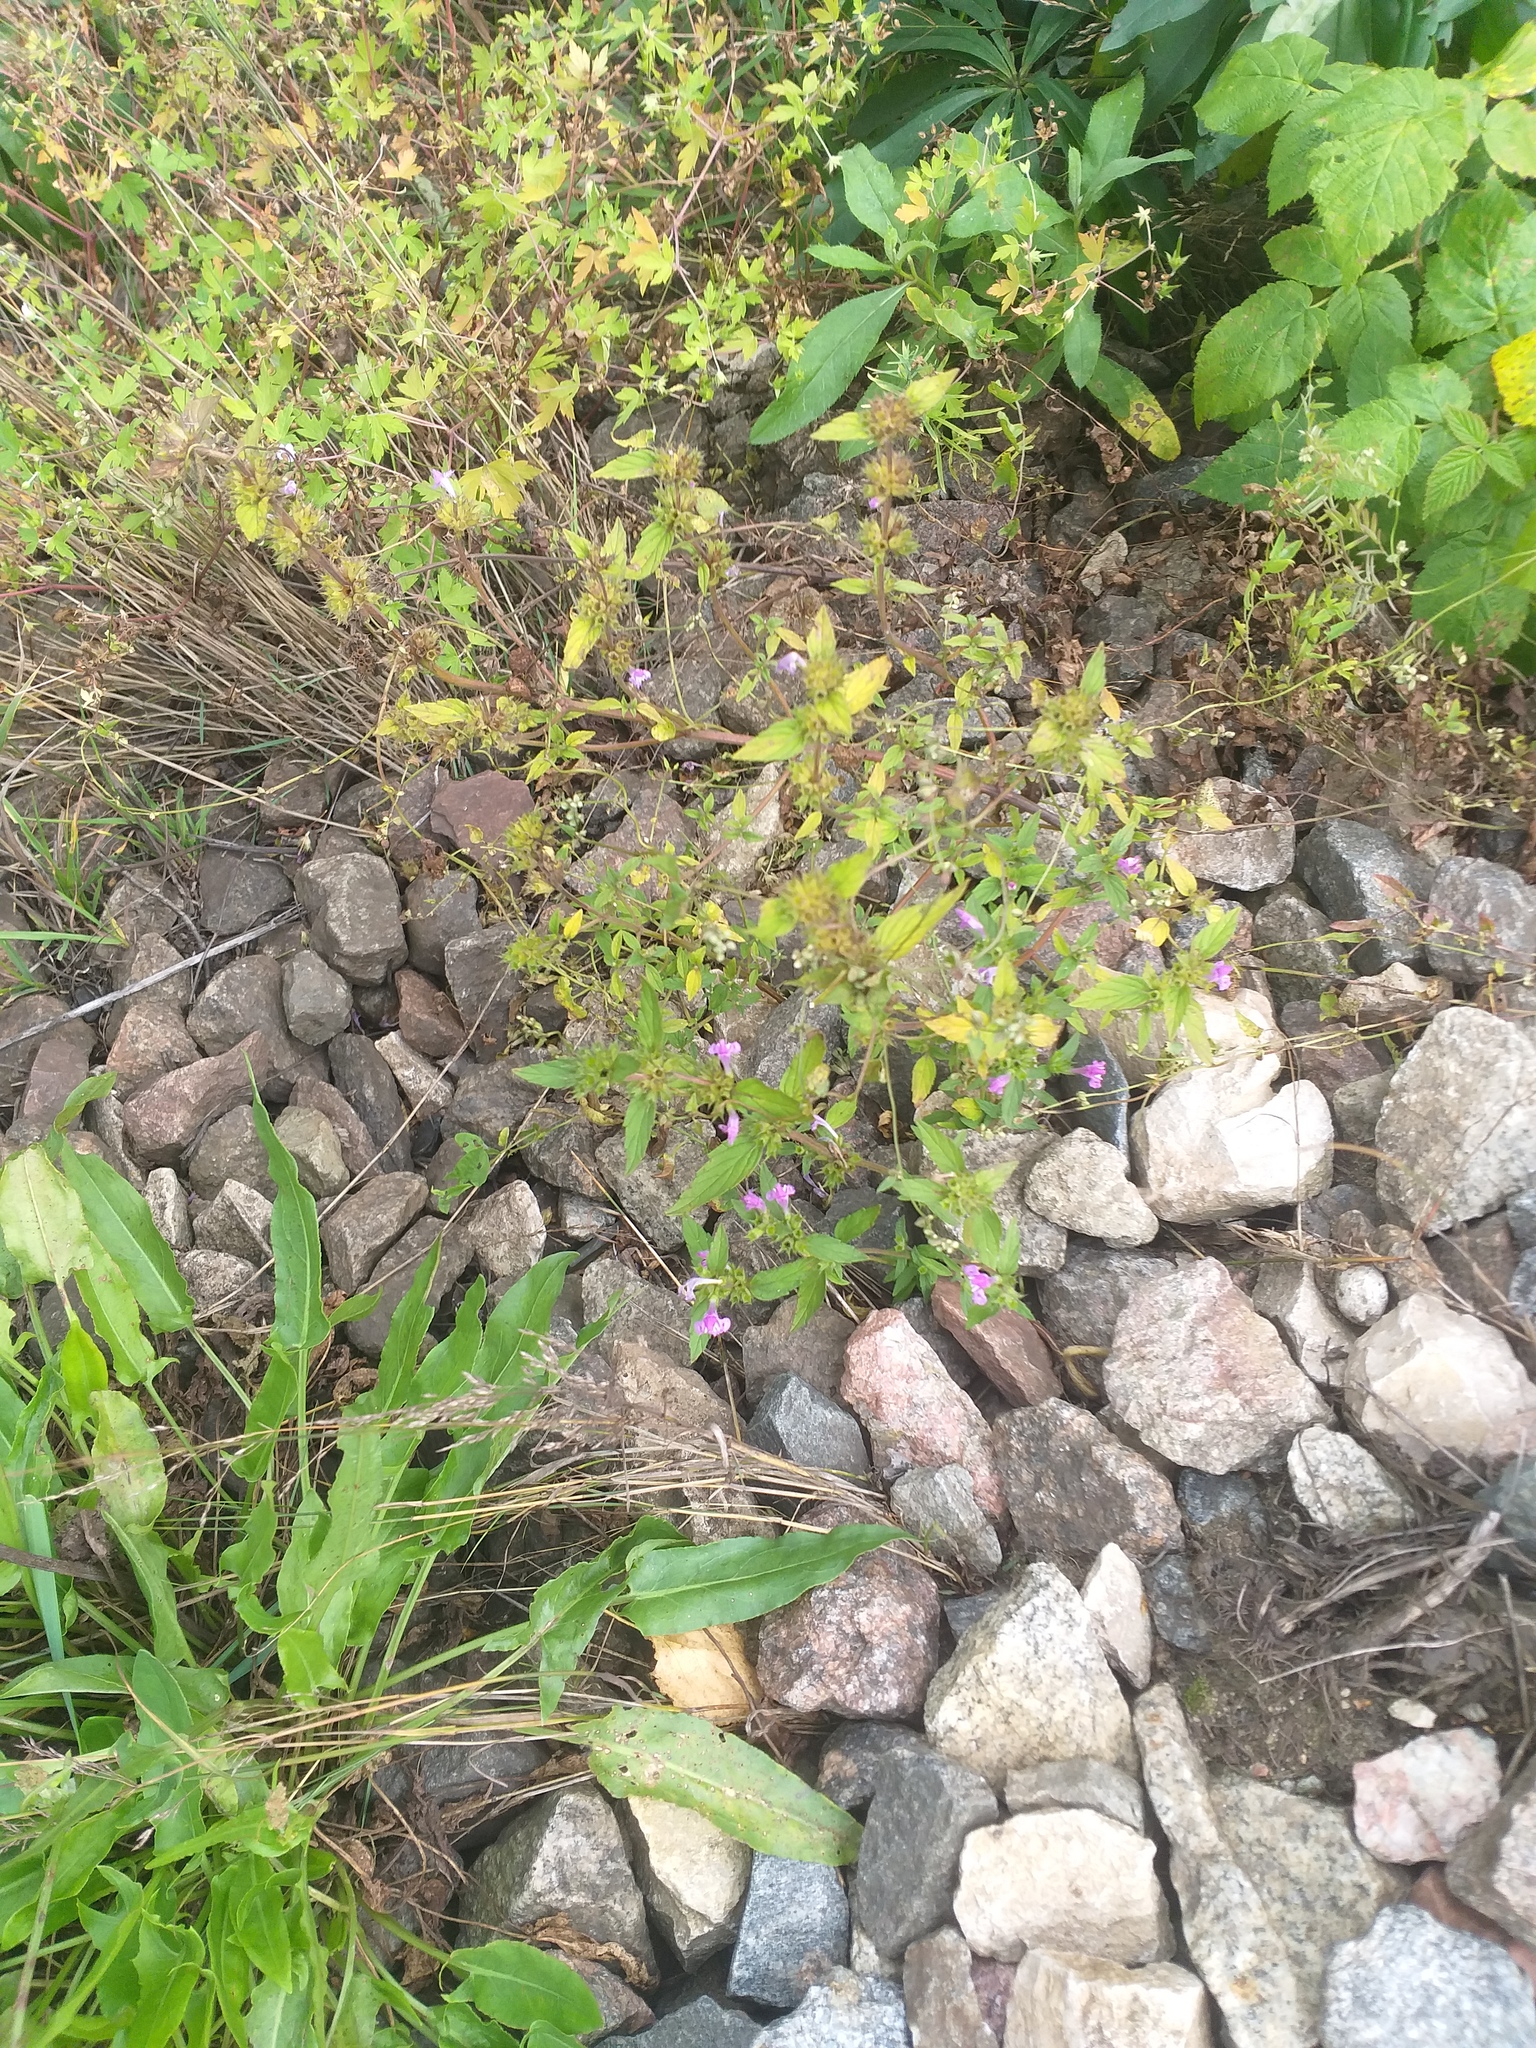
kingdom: Plantae
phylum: Tracheophyta
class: Magnoliopsida
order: Lamiales
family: Lamiaceae
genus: Galeopsis
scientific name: Galeopsis ladanum
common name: Broad-leaved hemp-nettle
